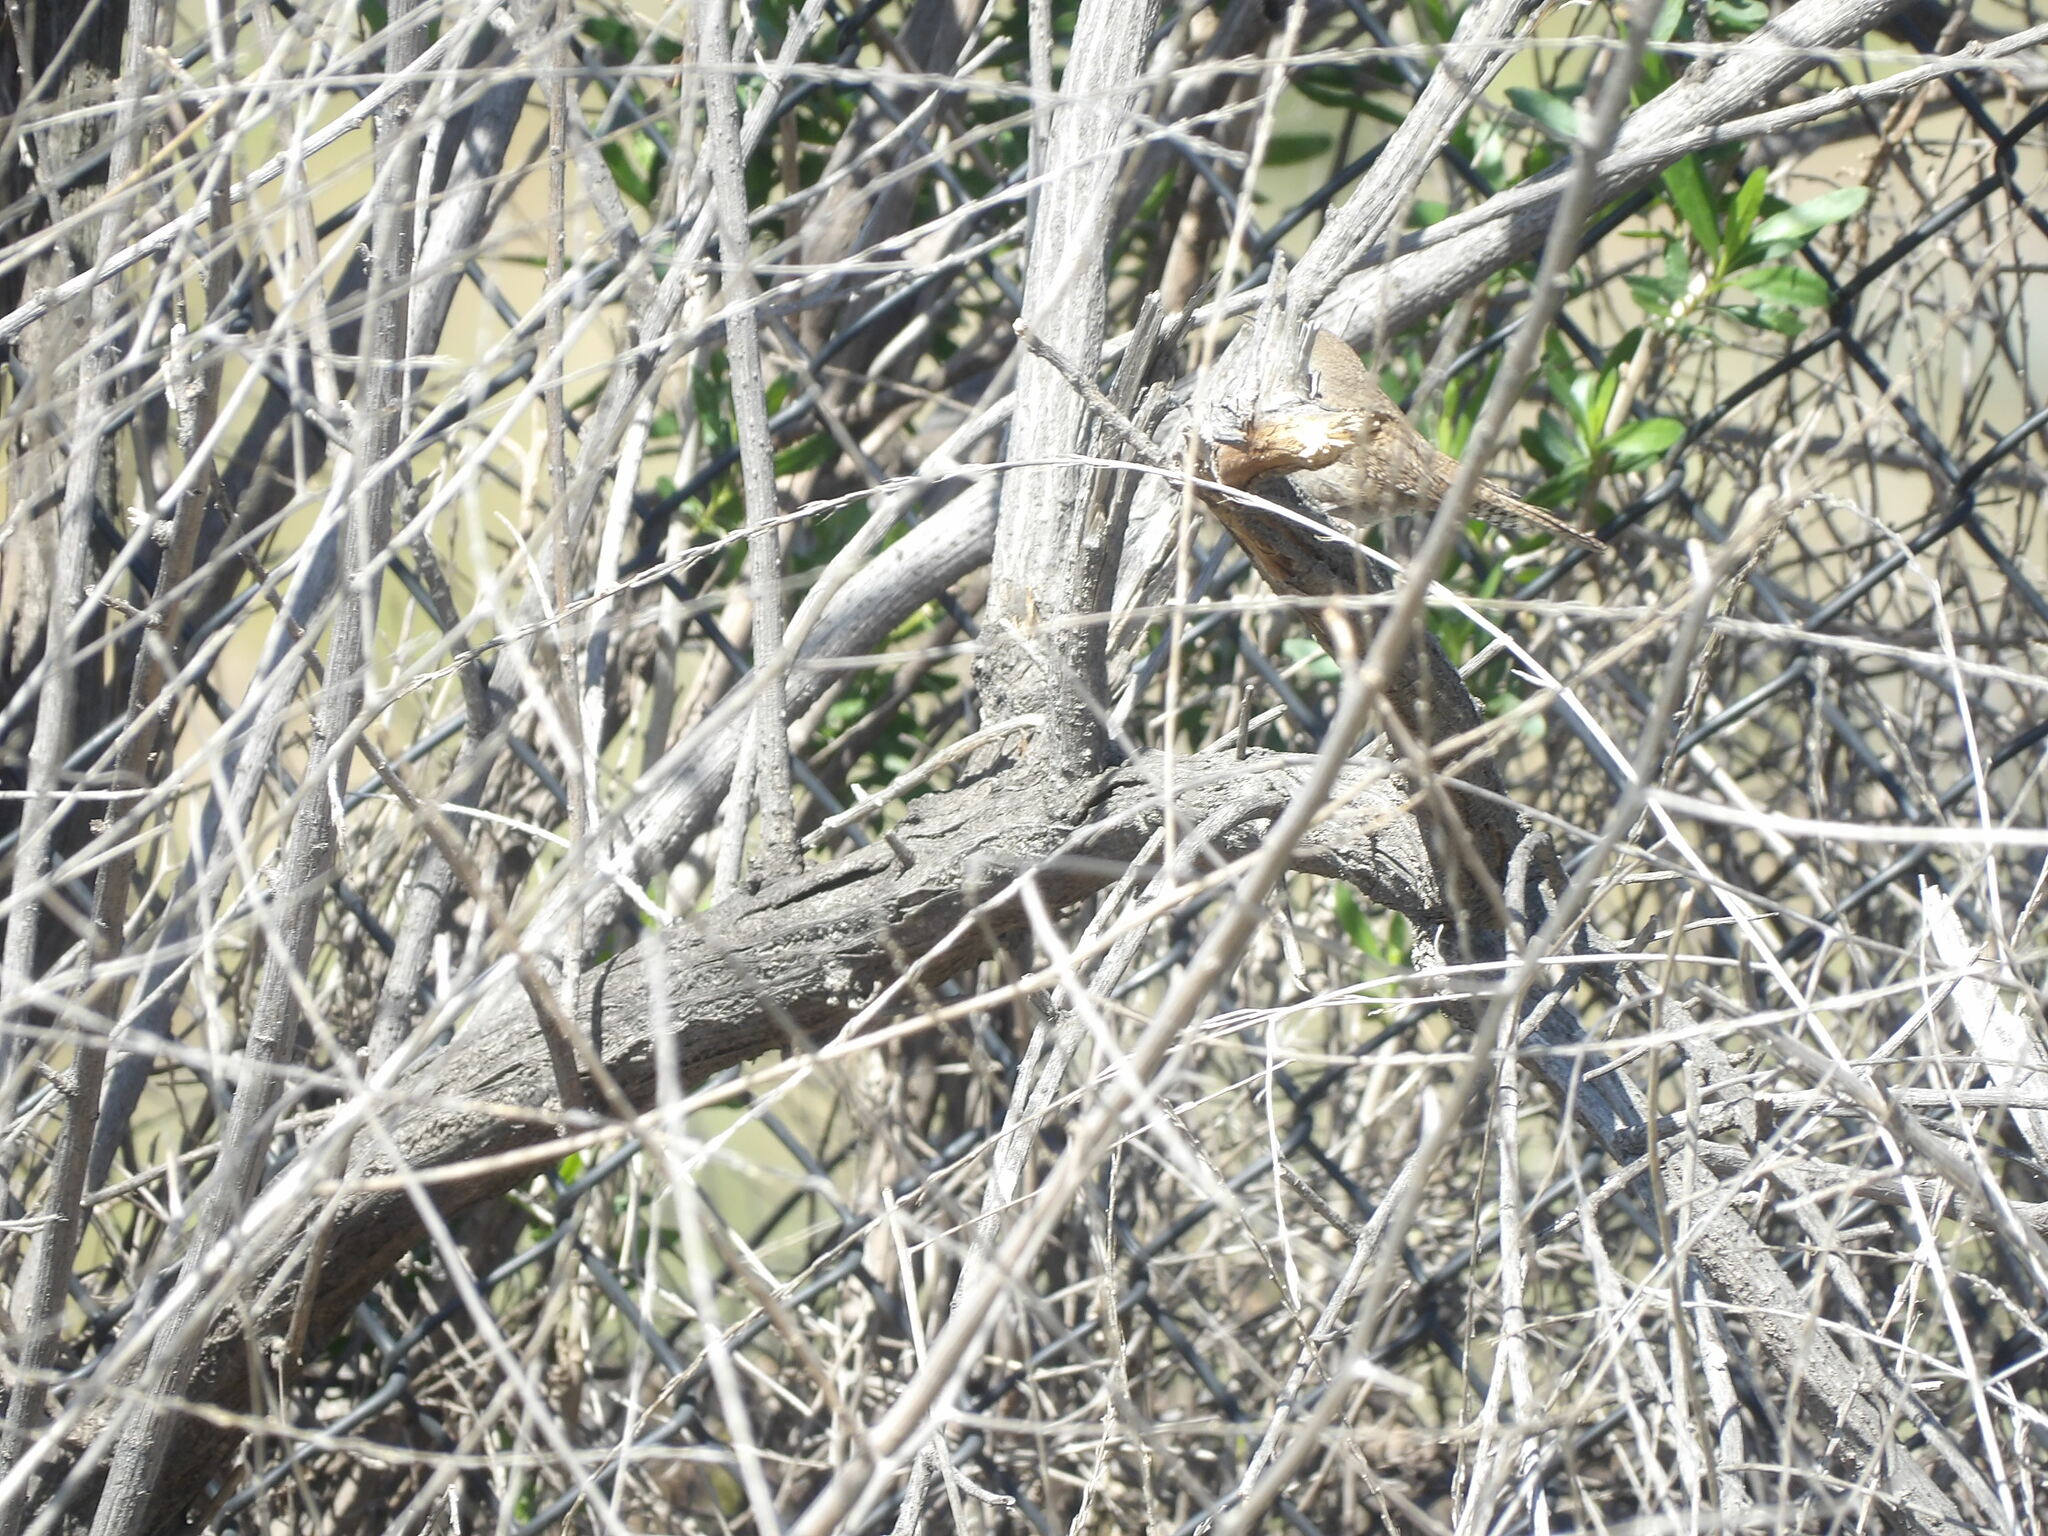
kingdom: Animalia
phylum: Chordata
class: Aves
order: Passeriformes
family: Troglodytidae
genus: Troglodytes
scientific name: Troglodytes aedon
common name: House wren
